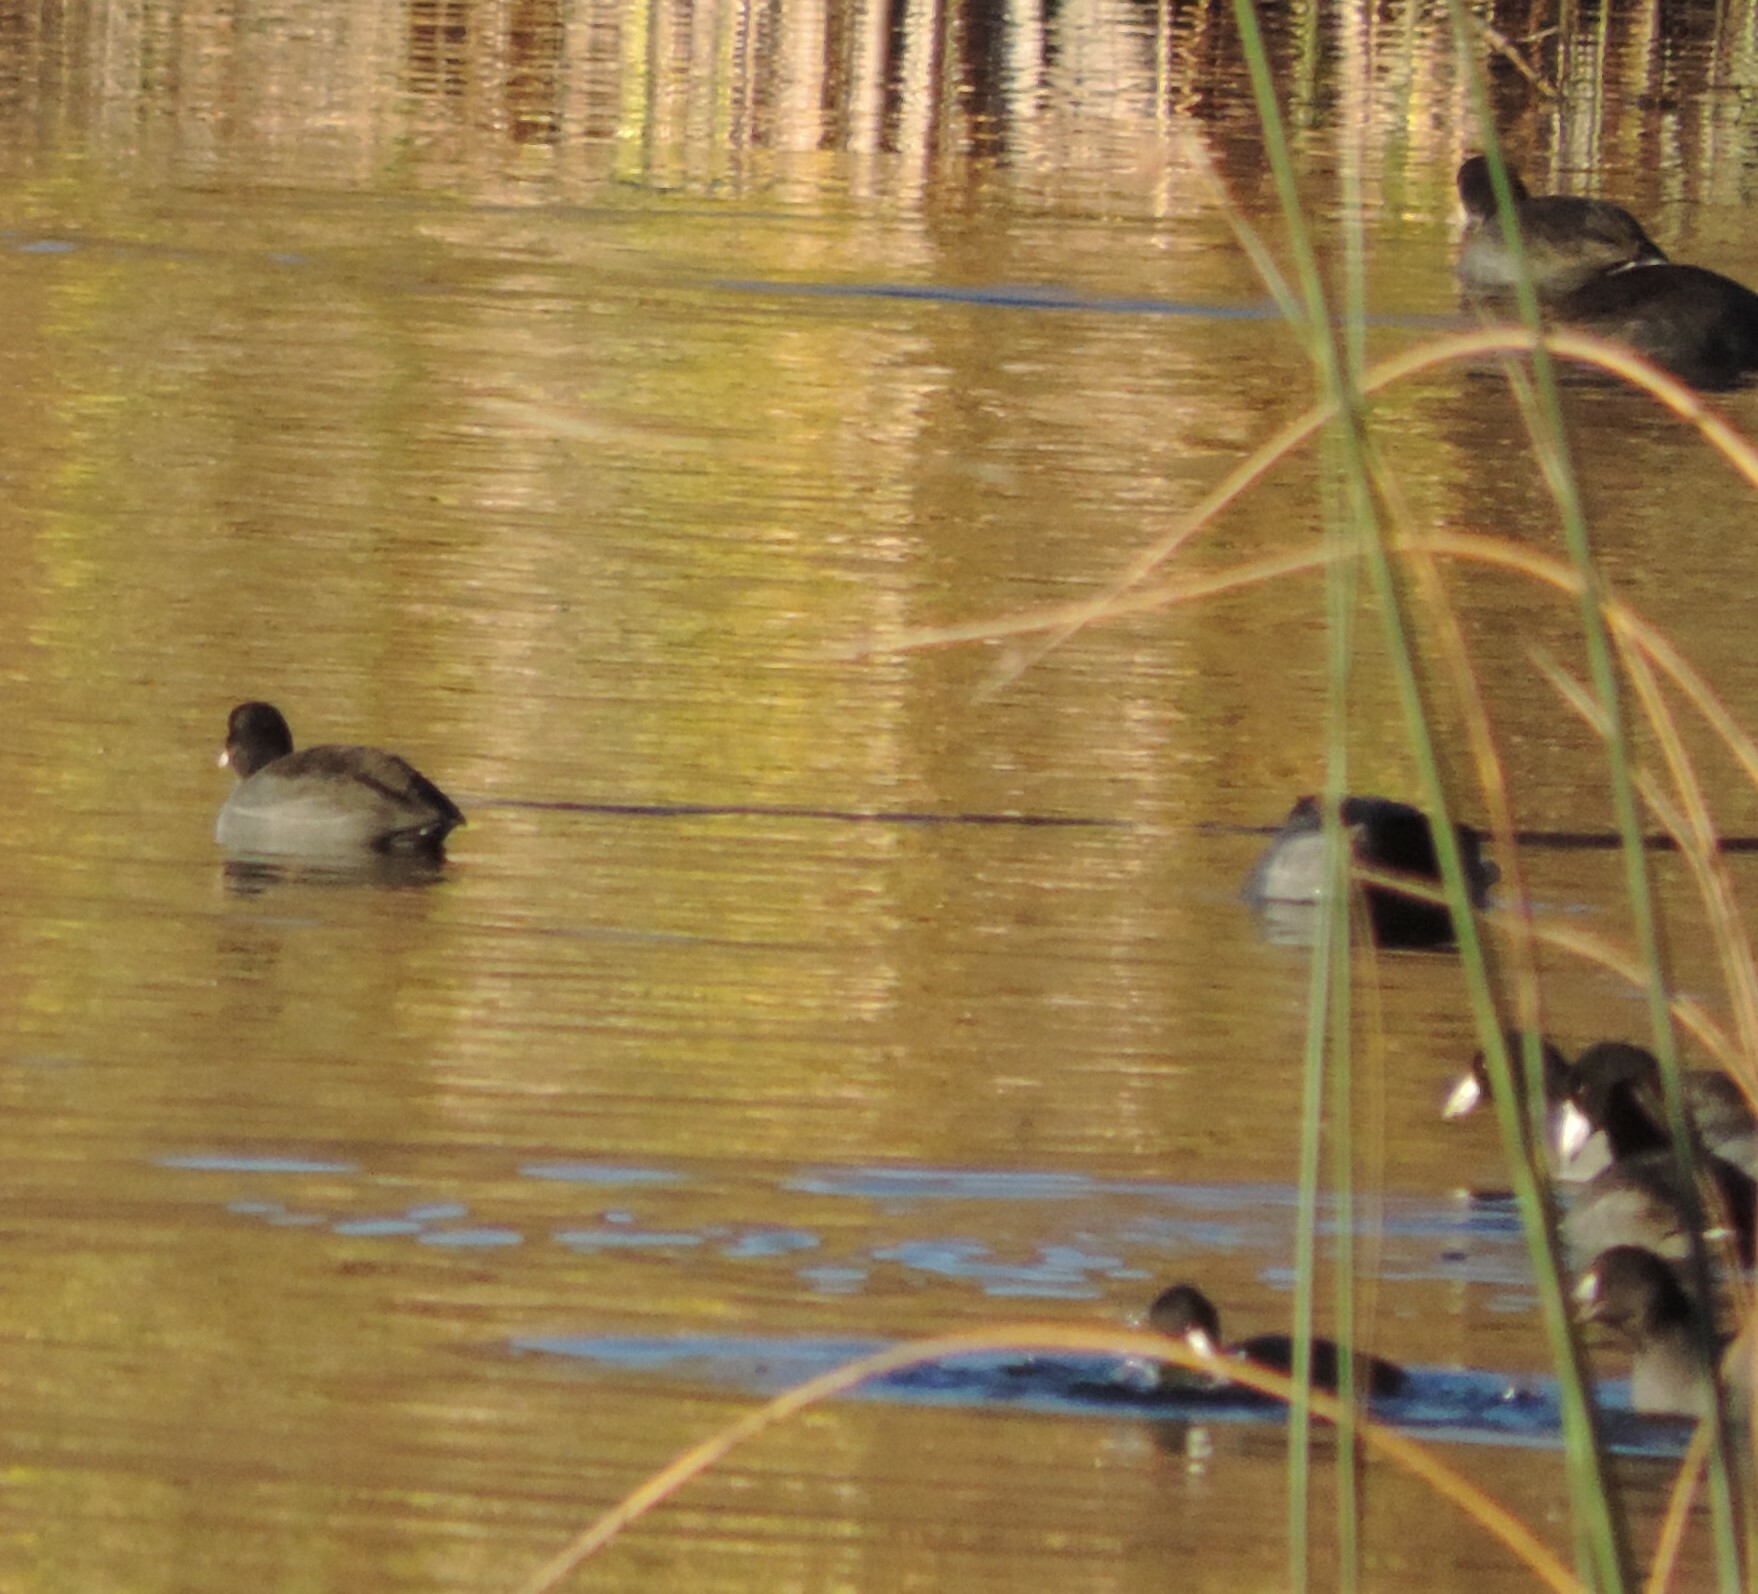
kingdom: Animalia
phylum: Chordata
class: Aves
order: Gruiformes
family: Rallidae
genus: Fulica
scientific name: Fulica americana
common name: American coot
